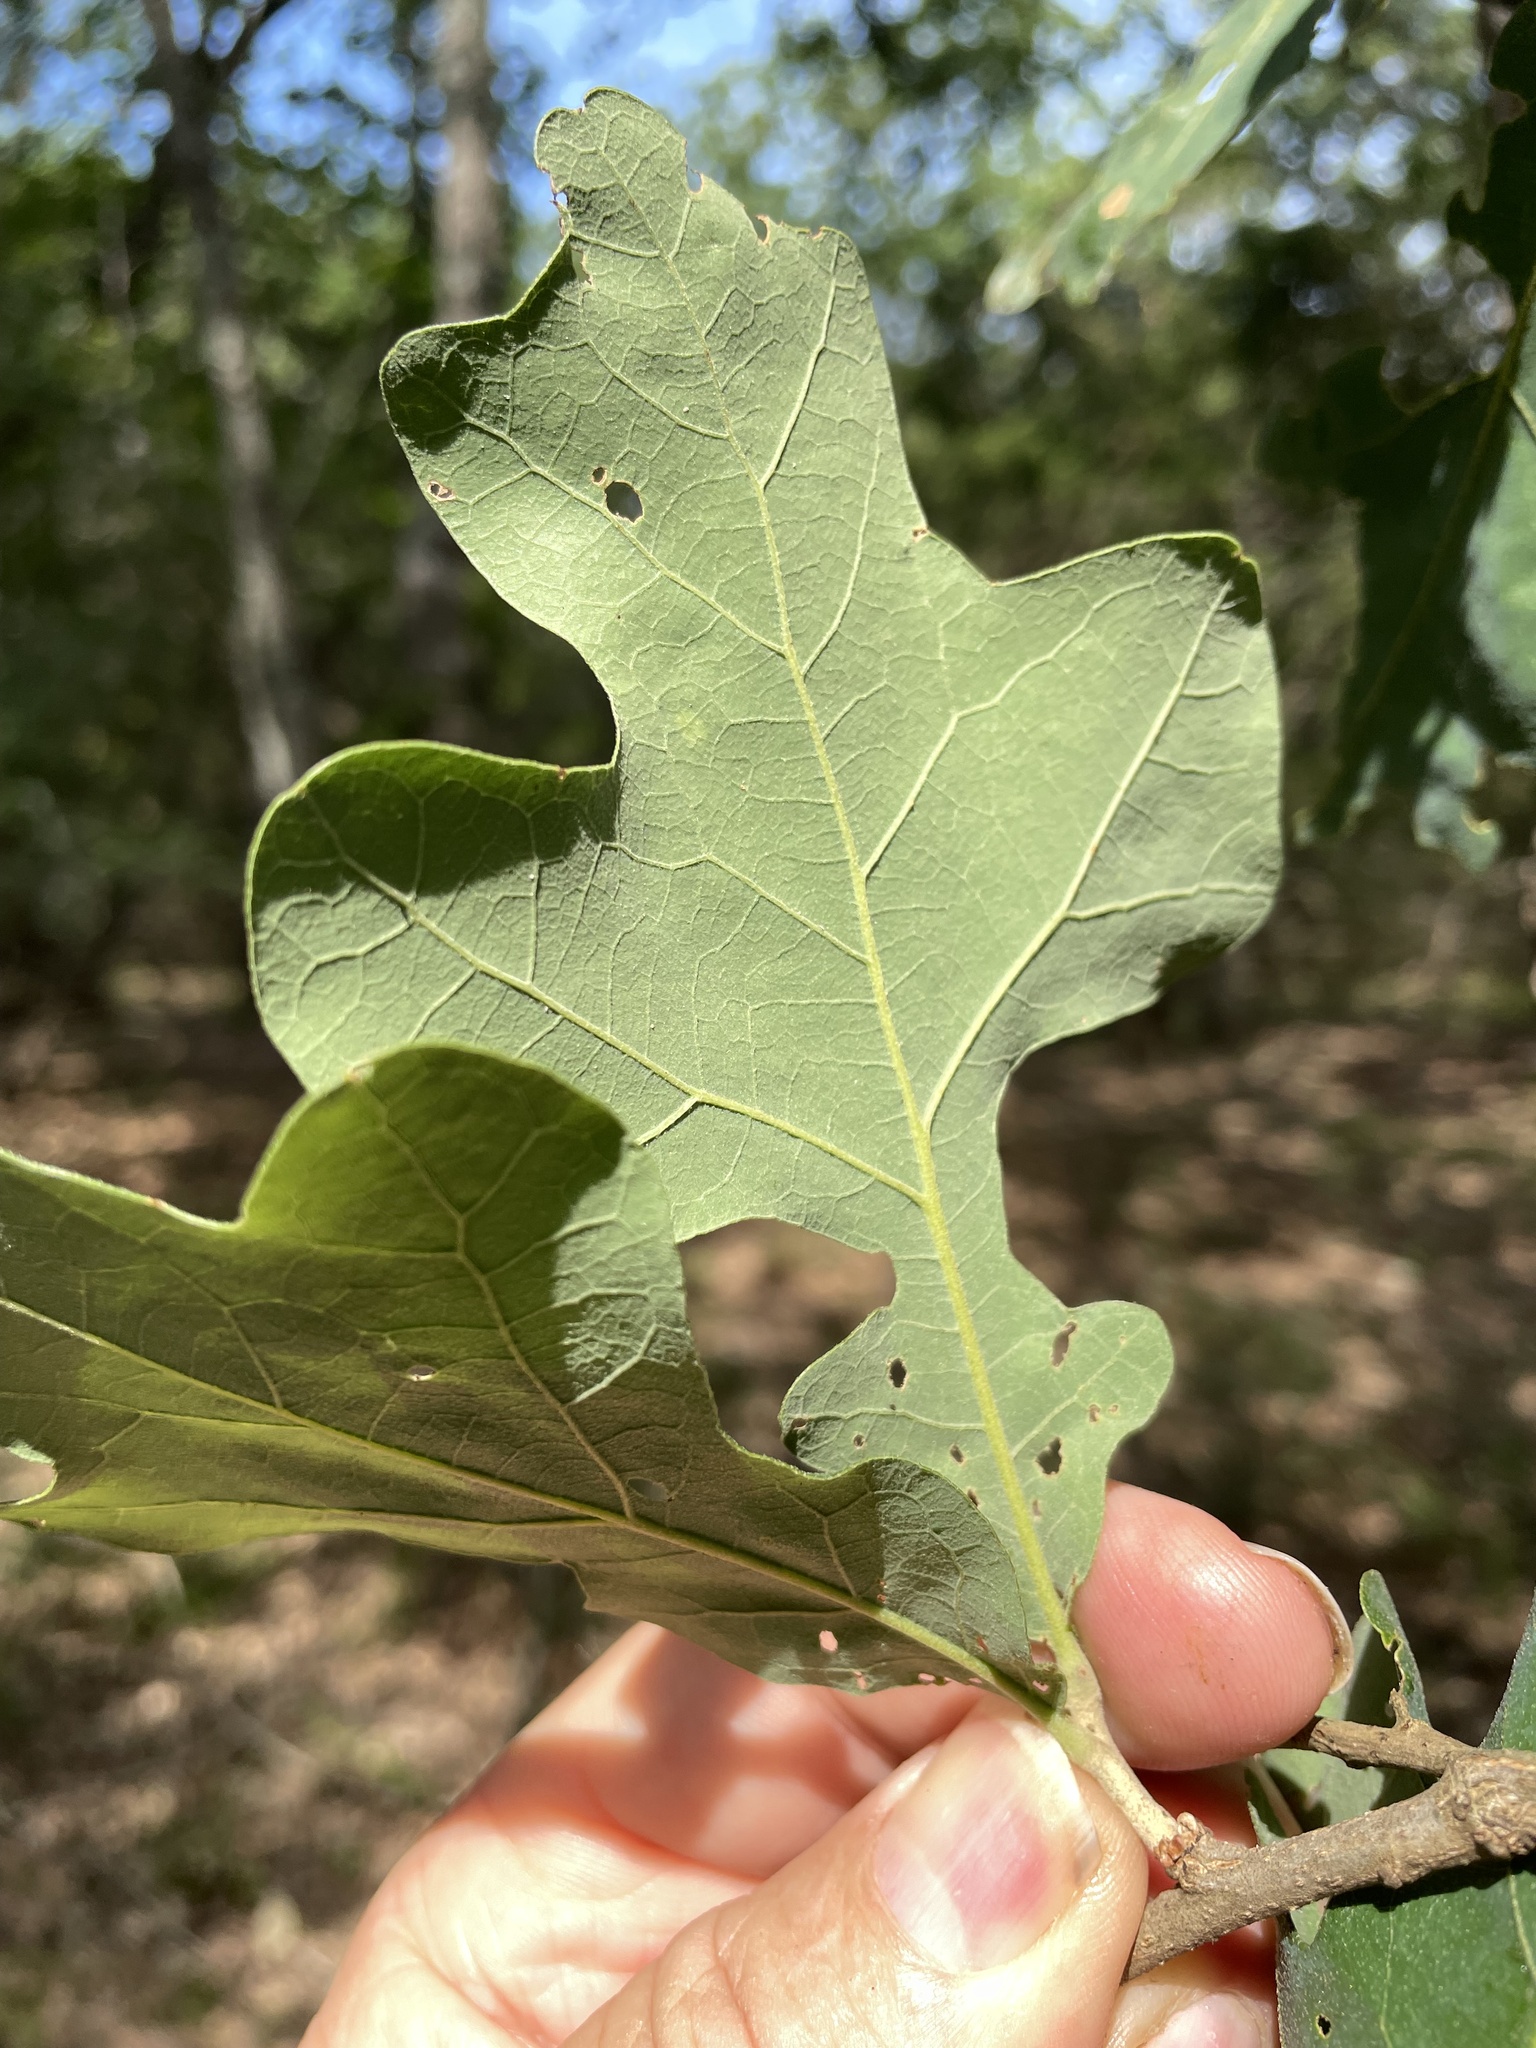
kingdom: Plantae
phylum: Tracheophyta
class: Magnoliopsida
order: Fagales
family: Fagaceae
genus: Quercus
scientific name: Quercus stellata
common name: Post oak
